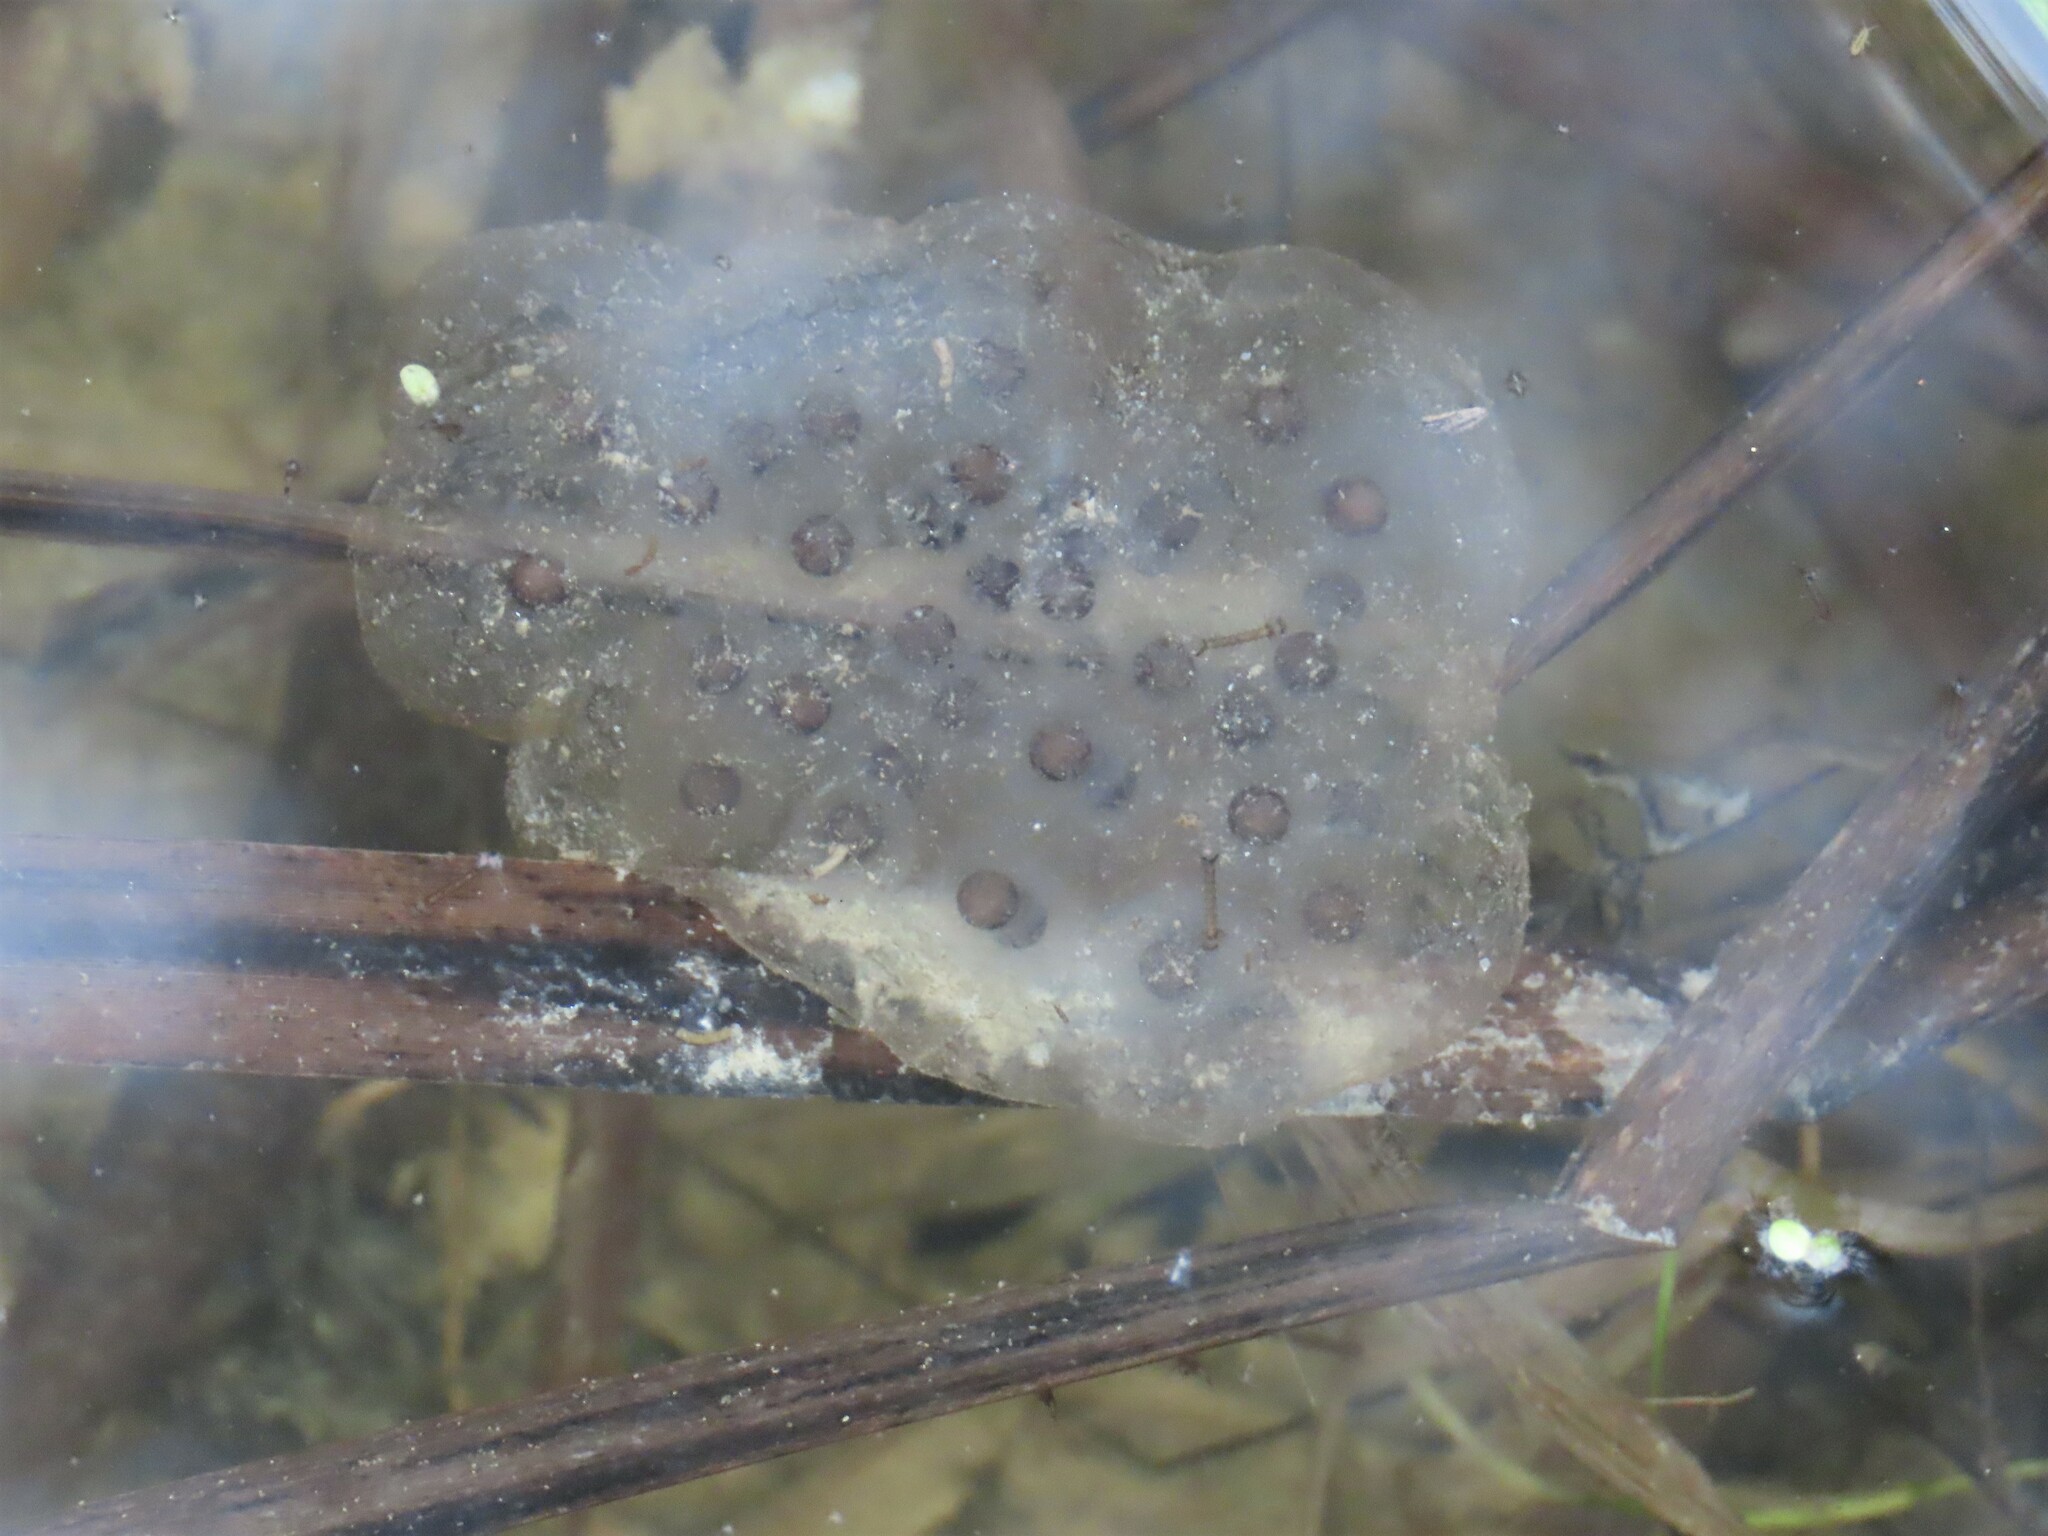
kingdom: Animalia
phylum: Chordata
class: Amphibia
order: Caudata
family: Ambystomatidae
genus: Ambystoma
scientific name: Ambystoma maculatum
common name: Spotted salamander
